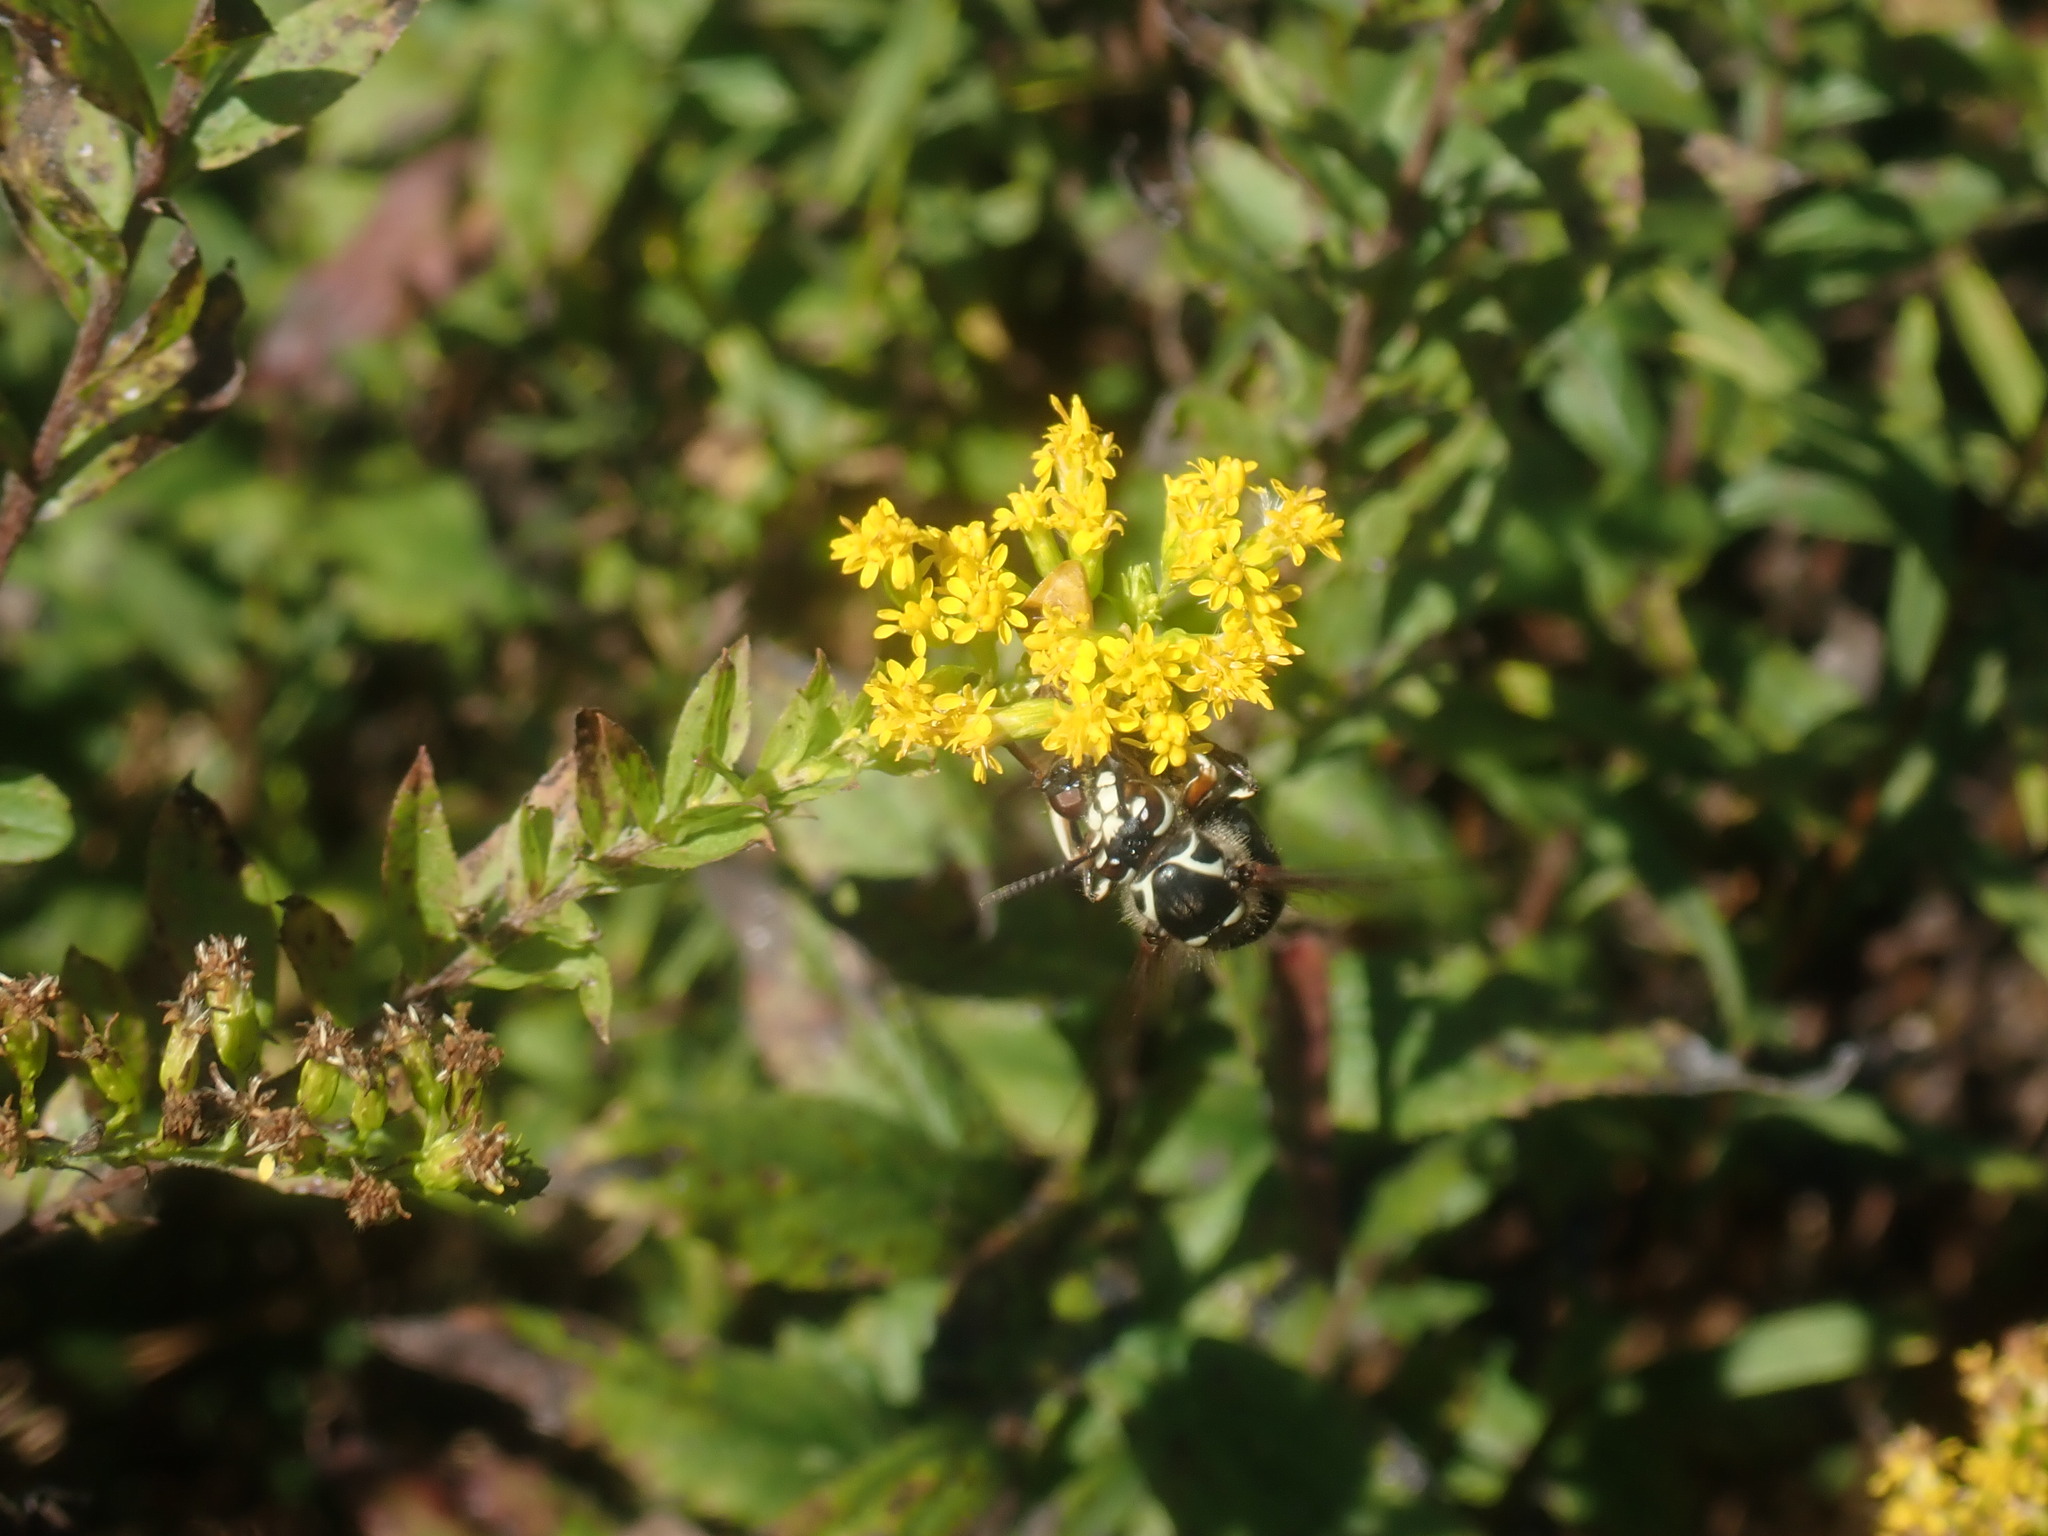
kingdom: Animalia
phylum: Arthropoda
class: Insecta
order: Hymenoptera
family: Vespidae
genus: Dolichovespula
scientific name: Dolichovespula maculata
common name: Bald-faced hornet
